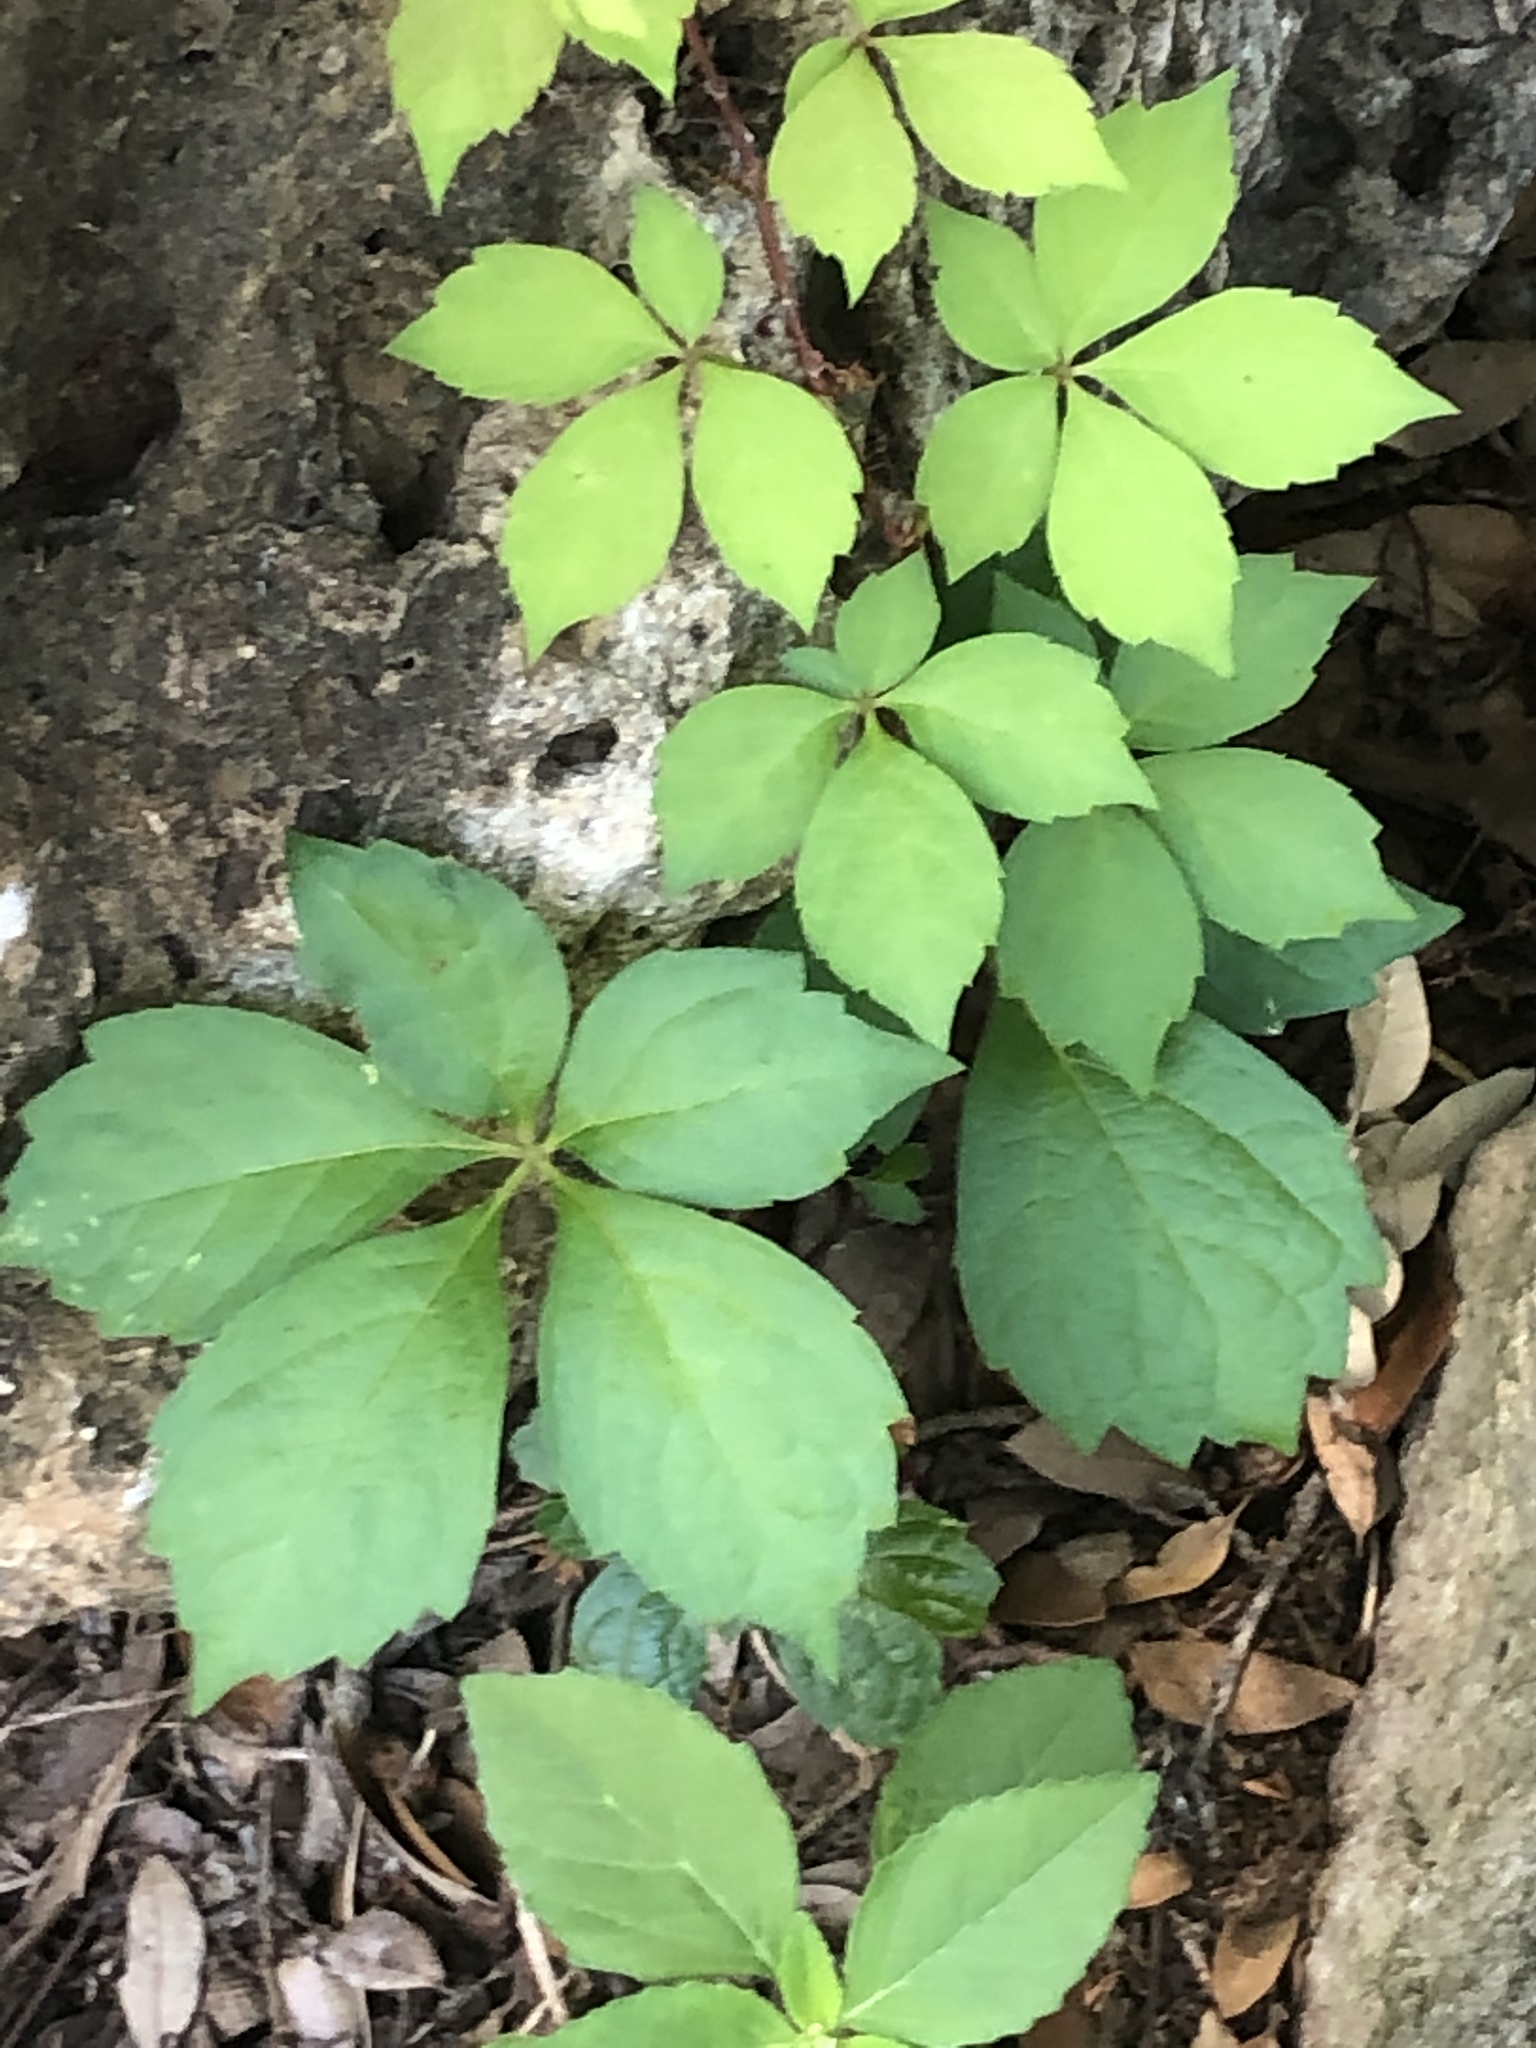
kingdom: Plantae
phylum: Tracheophyta
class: Magnoliopsida
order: Vitales
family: Vitaceae
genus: Parthenocissus
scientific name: Parthenocissus quinquefolia
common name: Virginia-creeper
